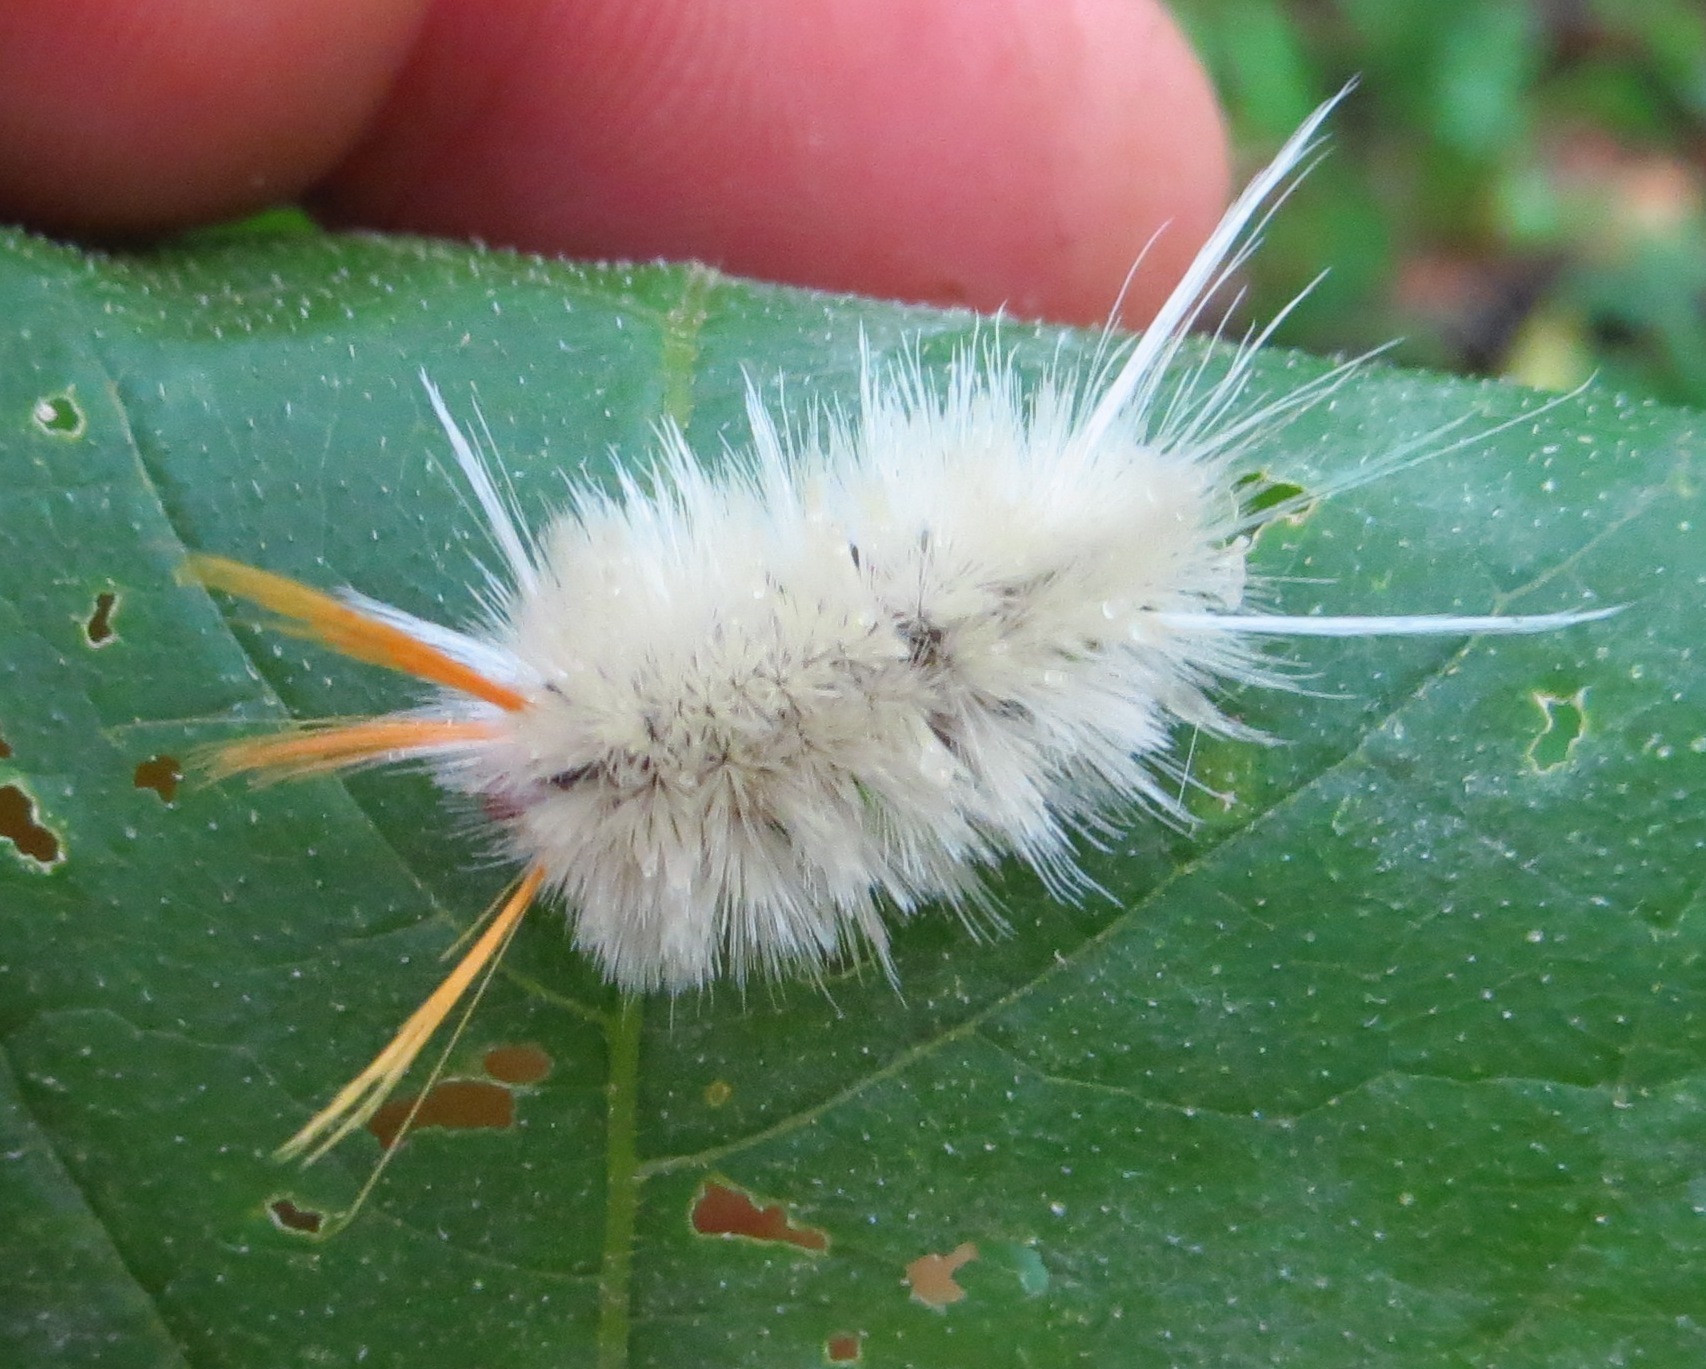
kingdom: Animalia
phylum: Arthropoda
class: Insecta
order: Lepidoptera
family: Erebidae
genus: Halysidota
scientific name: Halysidota harrisii
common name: Sycamore tussock moth
